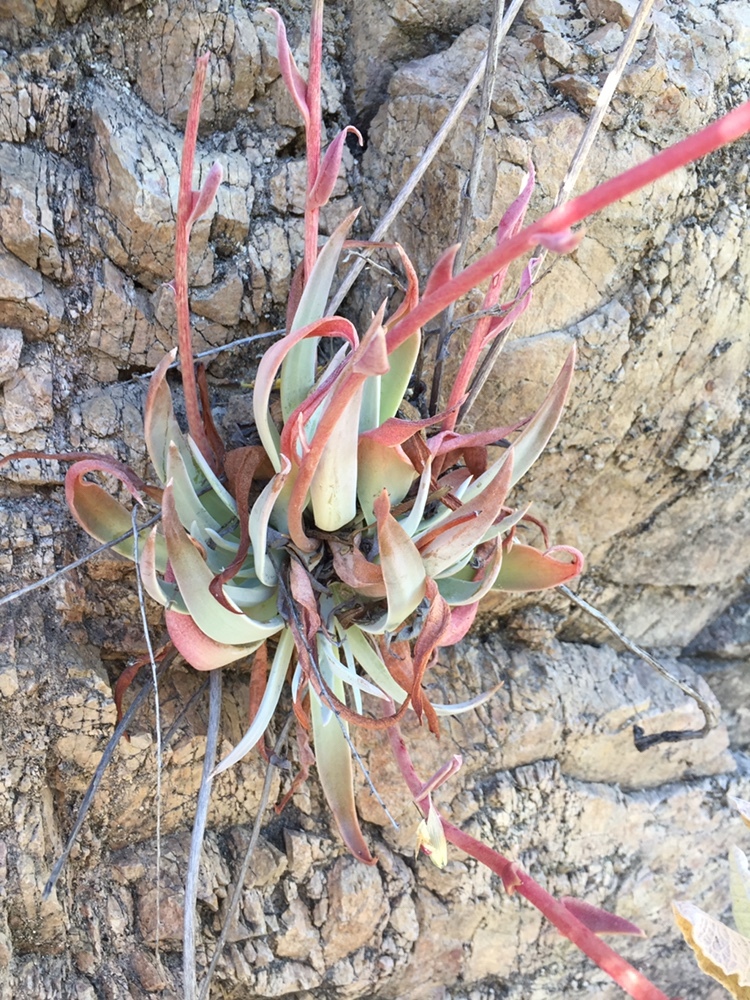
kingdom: Plantae
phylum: Tracheophyta
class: Magnoliopsida
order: Saxifragales
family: Crassulaceae
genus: Dudleya
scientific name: Dudleya lanceolata
